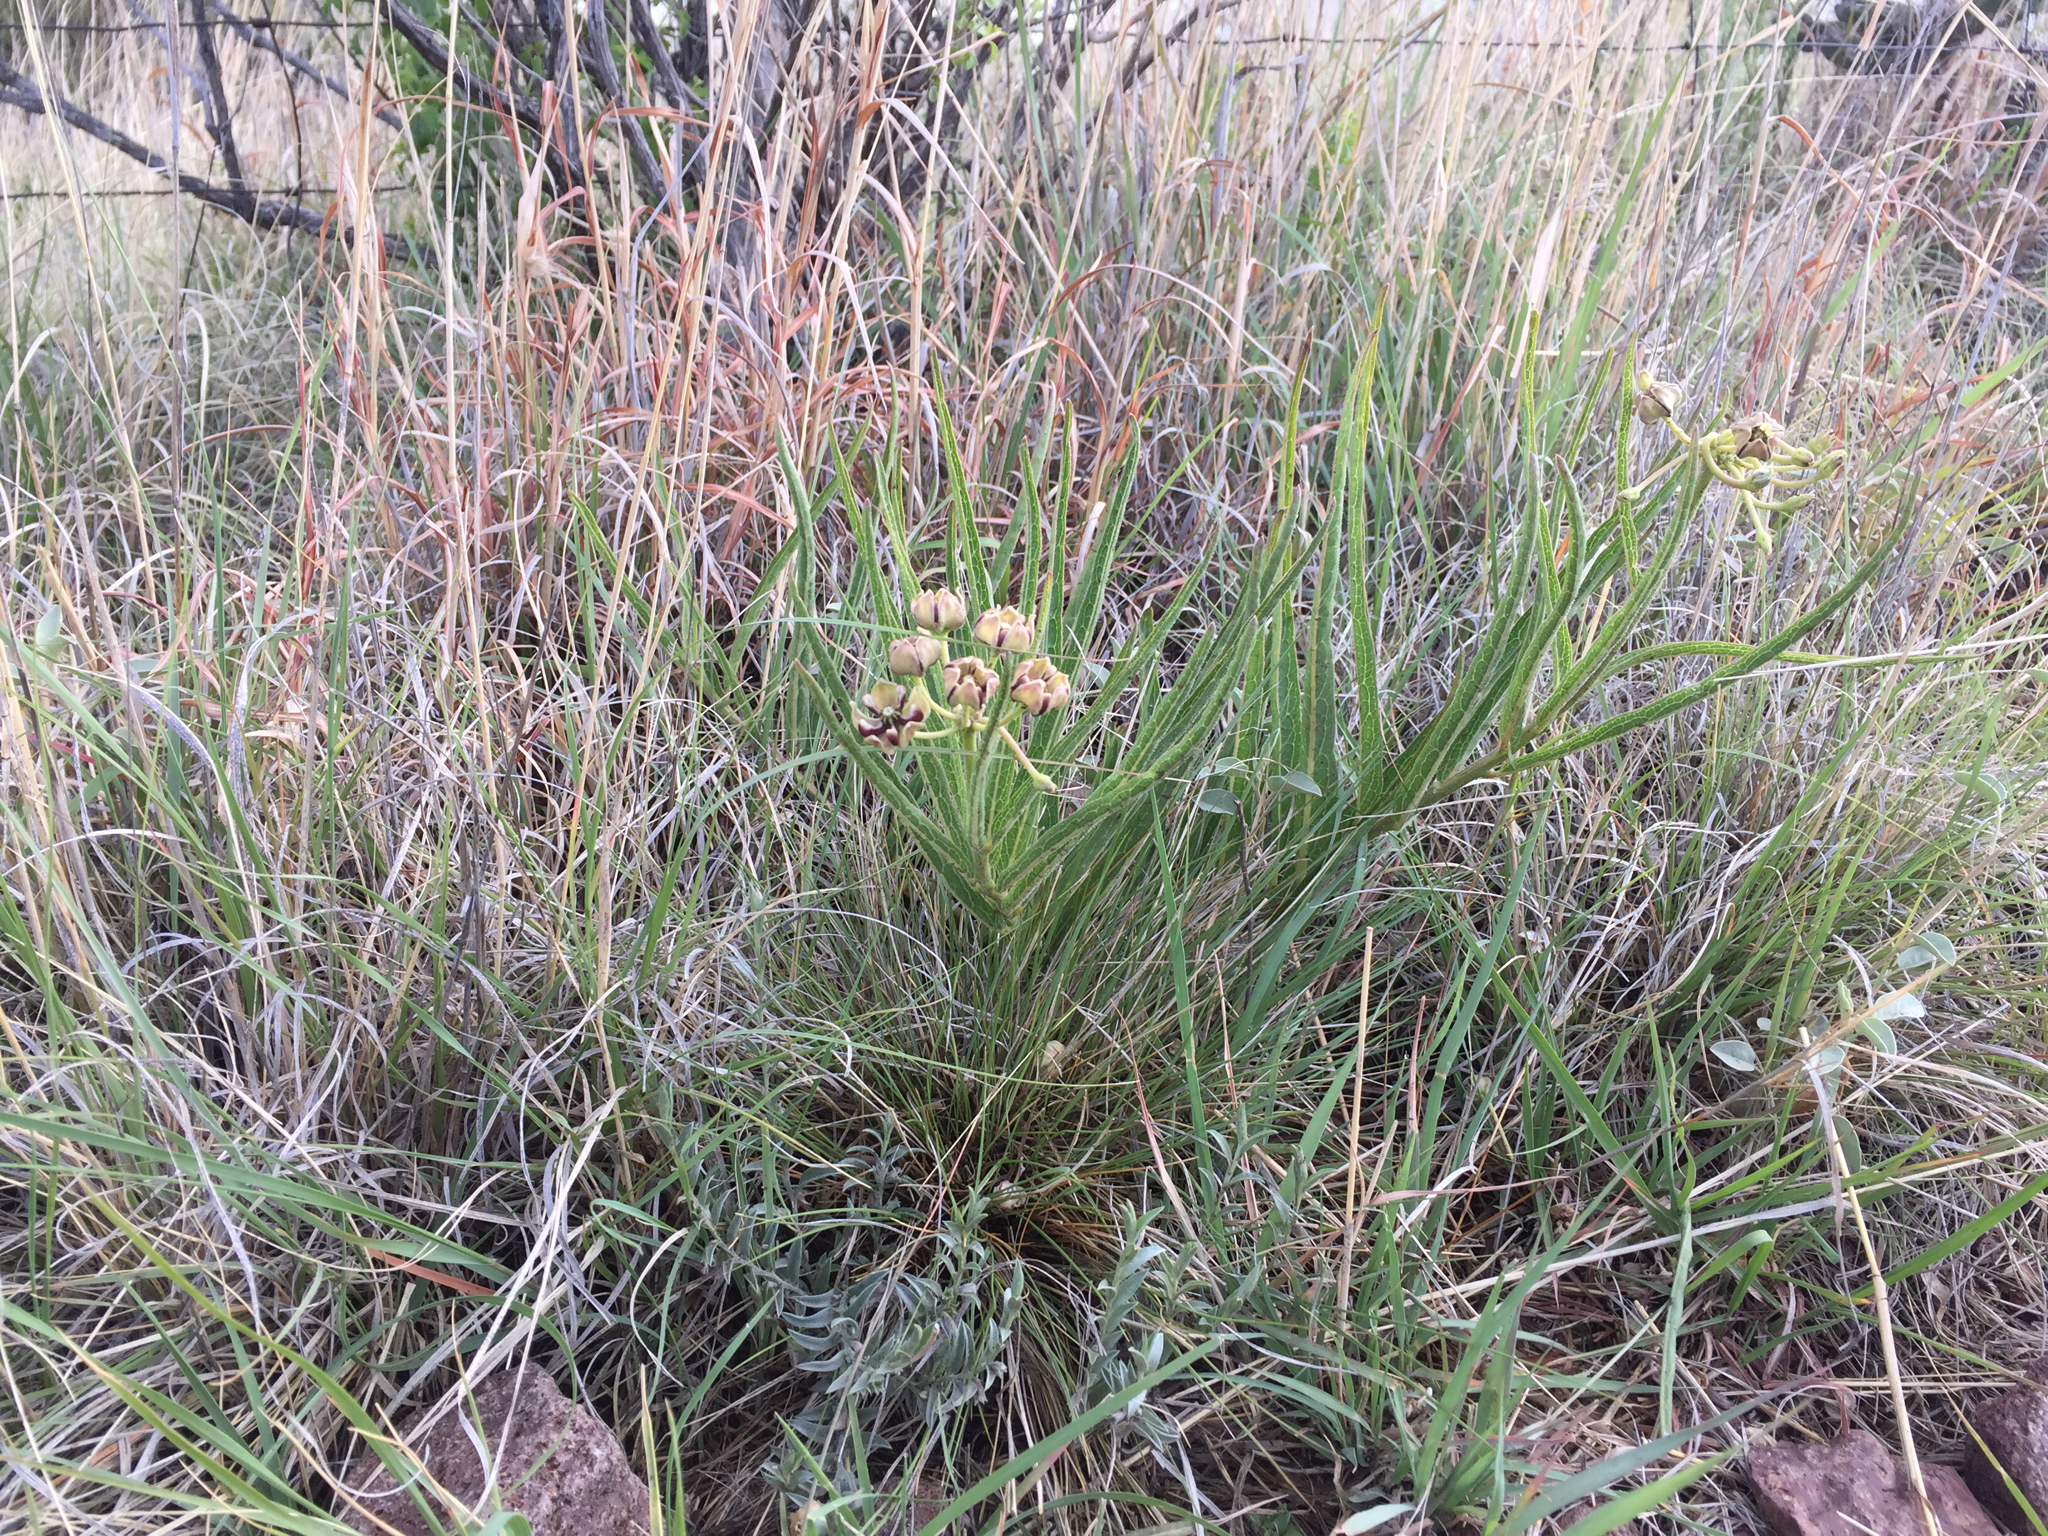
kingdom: Plantae
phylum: Tracheophyta
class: Magnoliopsida
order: Gentianales
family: Apocynaceae
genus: Asclepias
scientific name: Asclepias asperula
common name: Antelope horns
